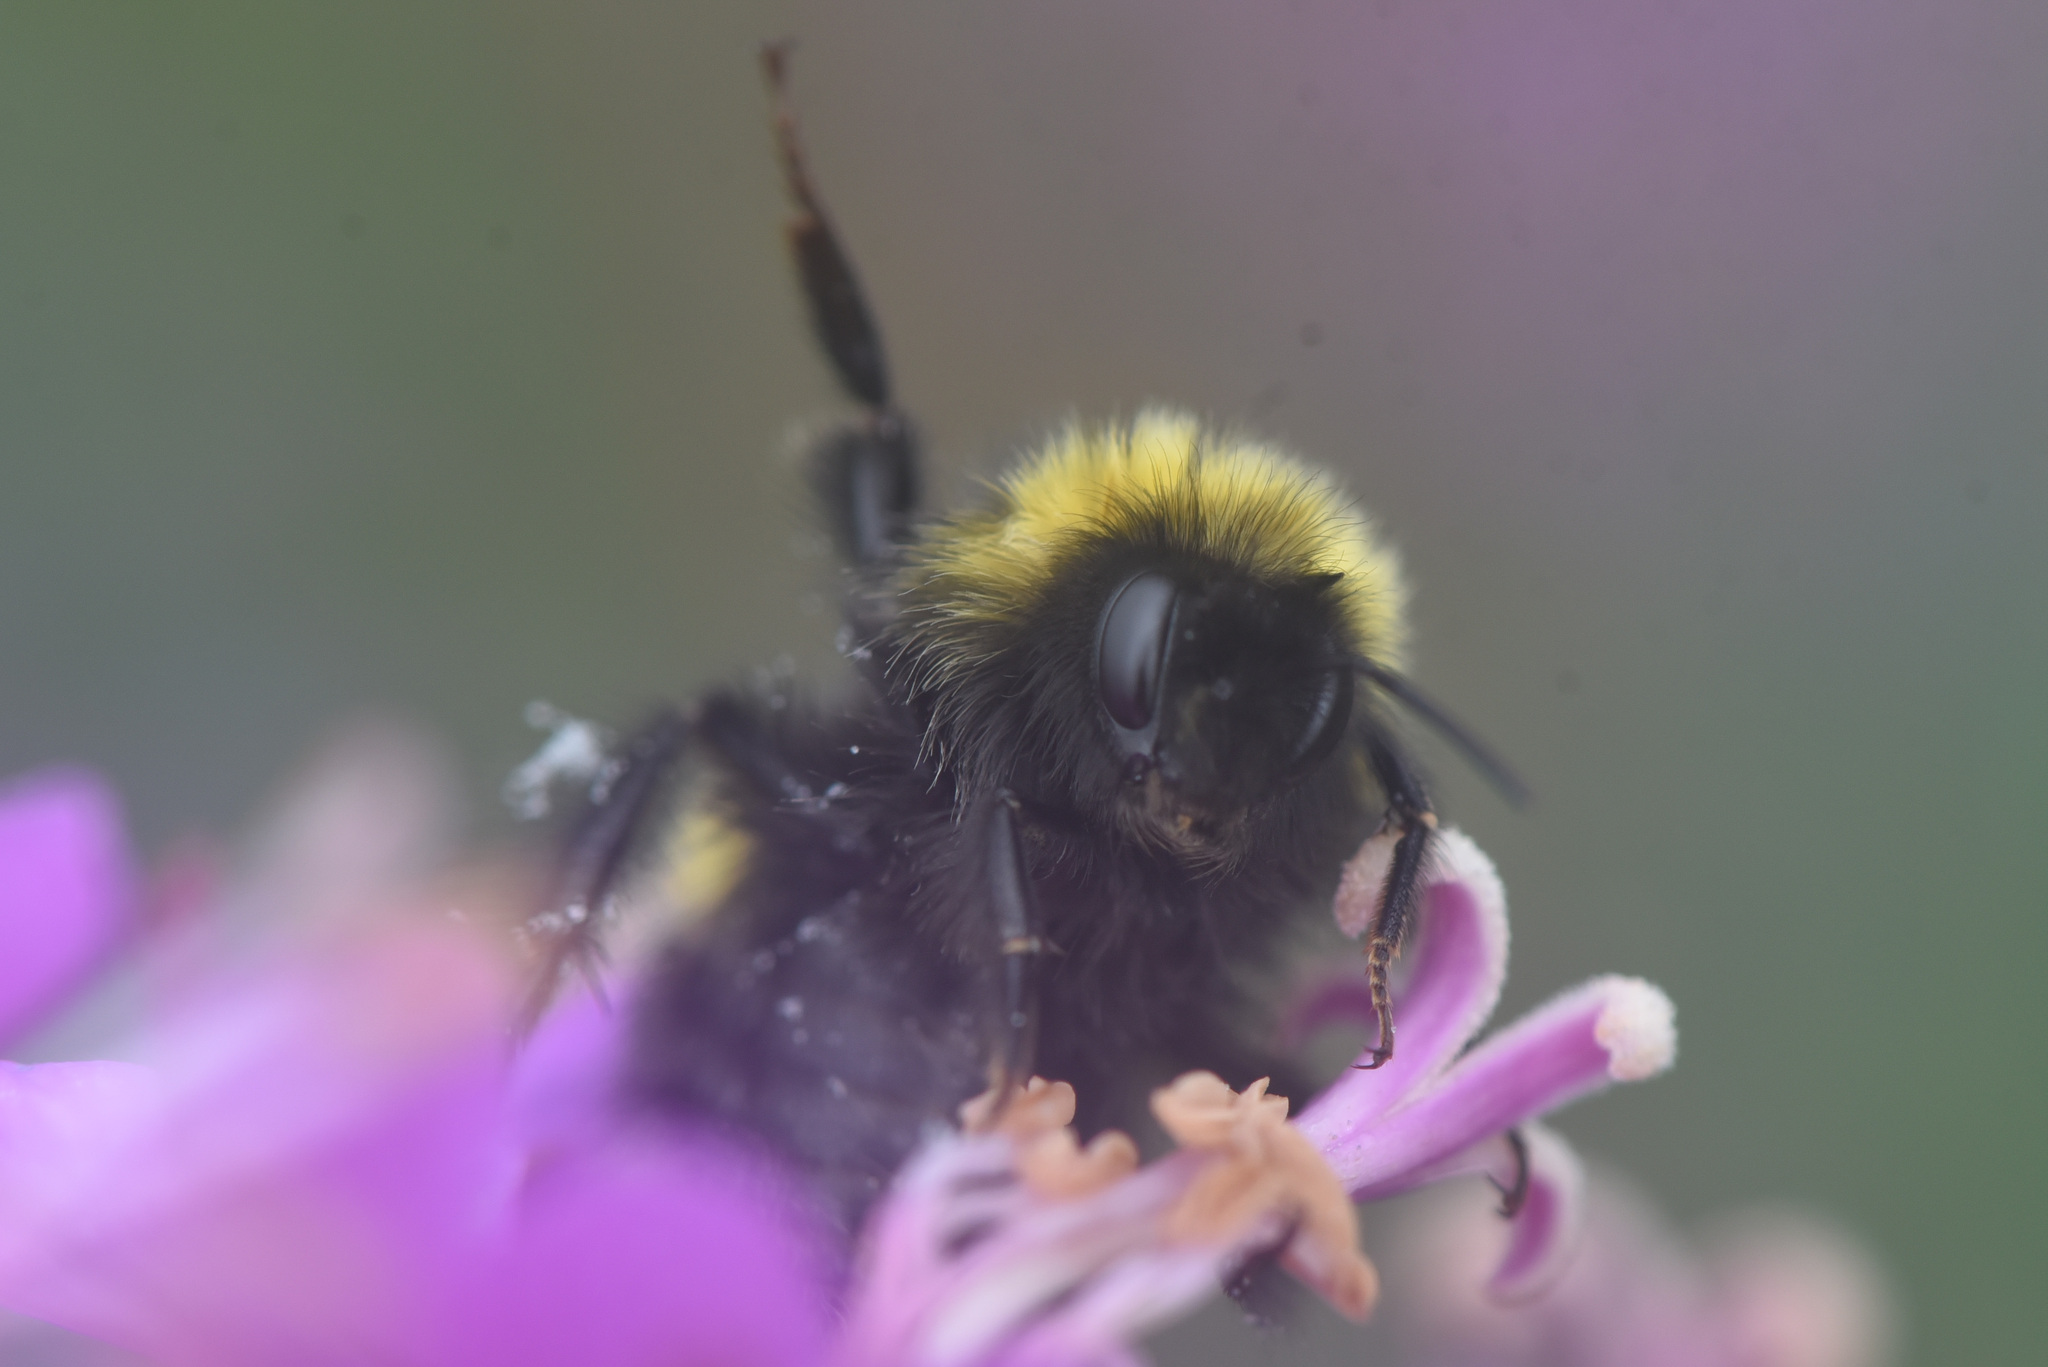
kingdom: Animalia
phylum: Arthropoda
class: Insecta
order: Hymenoptera
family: Apidae
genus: Bombus
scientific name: Bombus cryptarum
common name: Cryptic bumblebee
